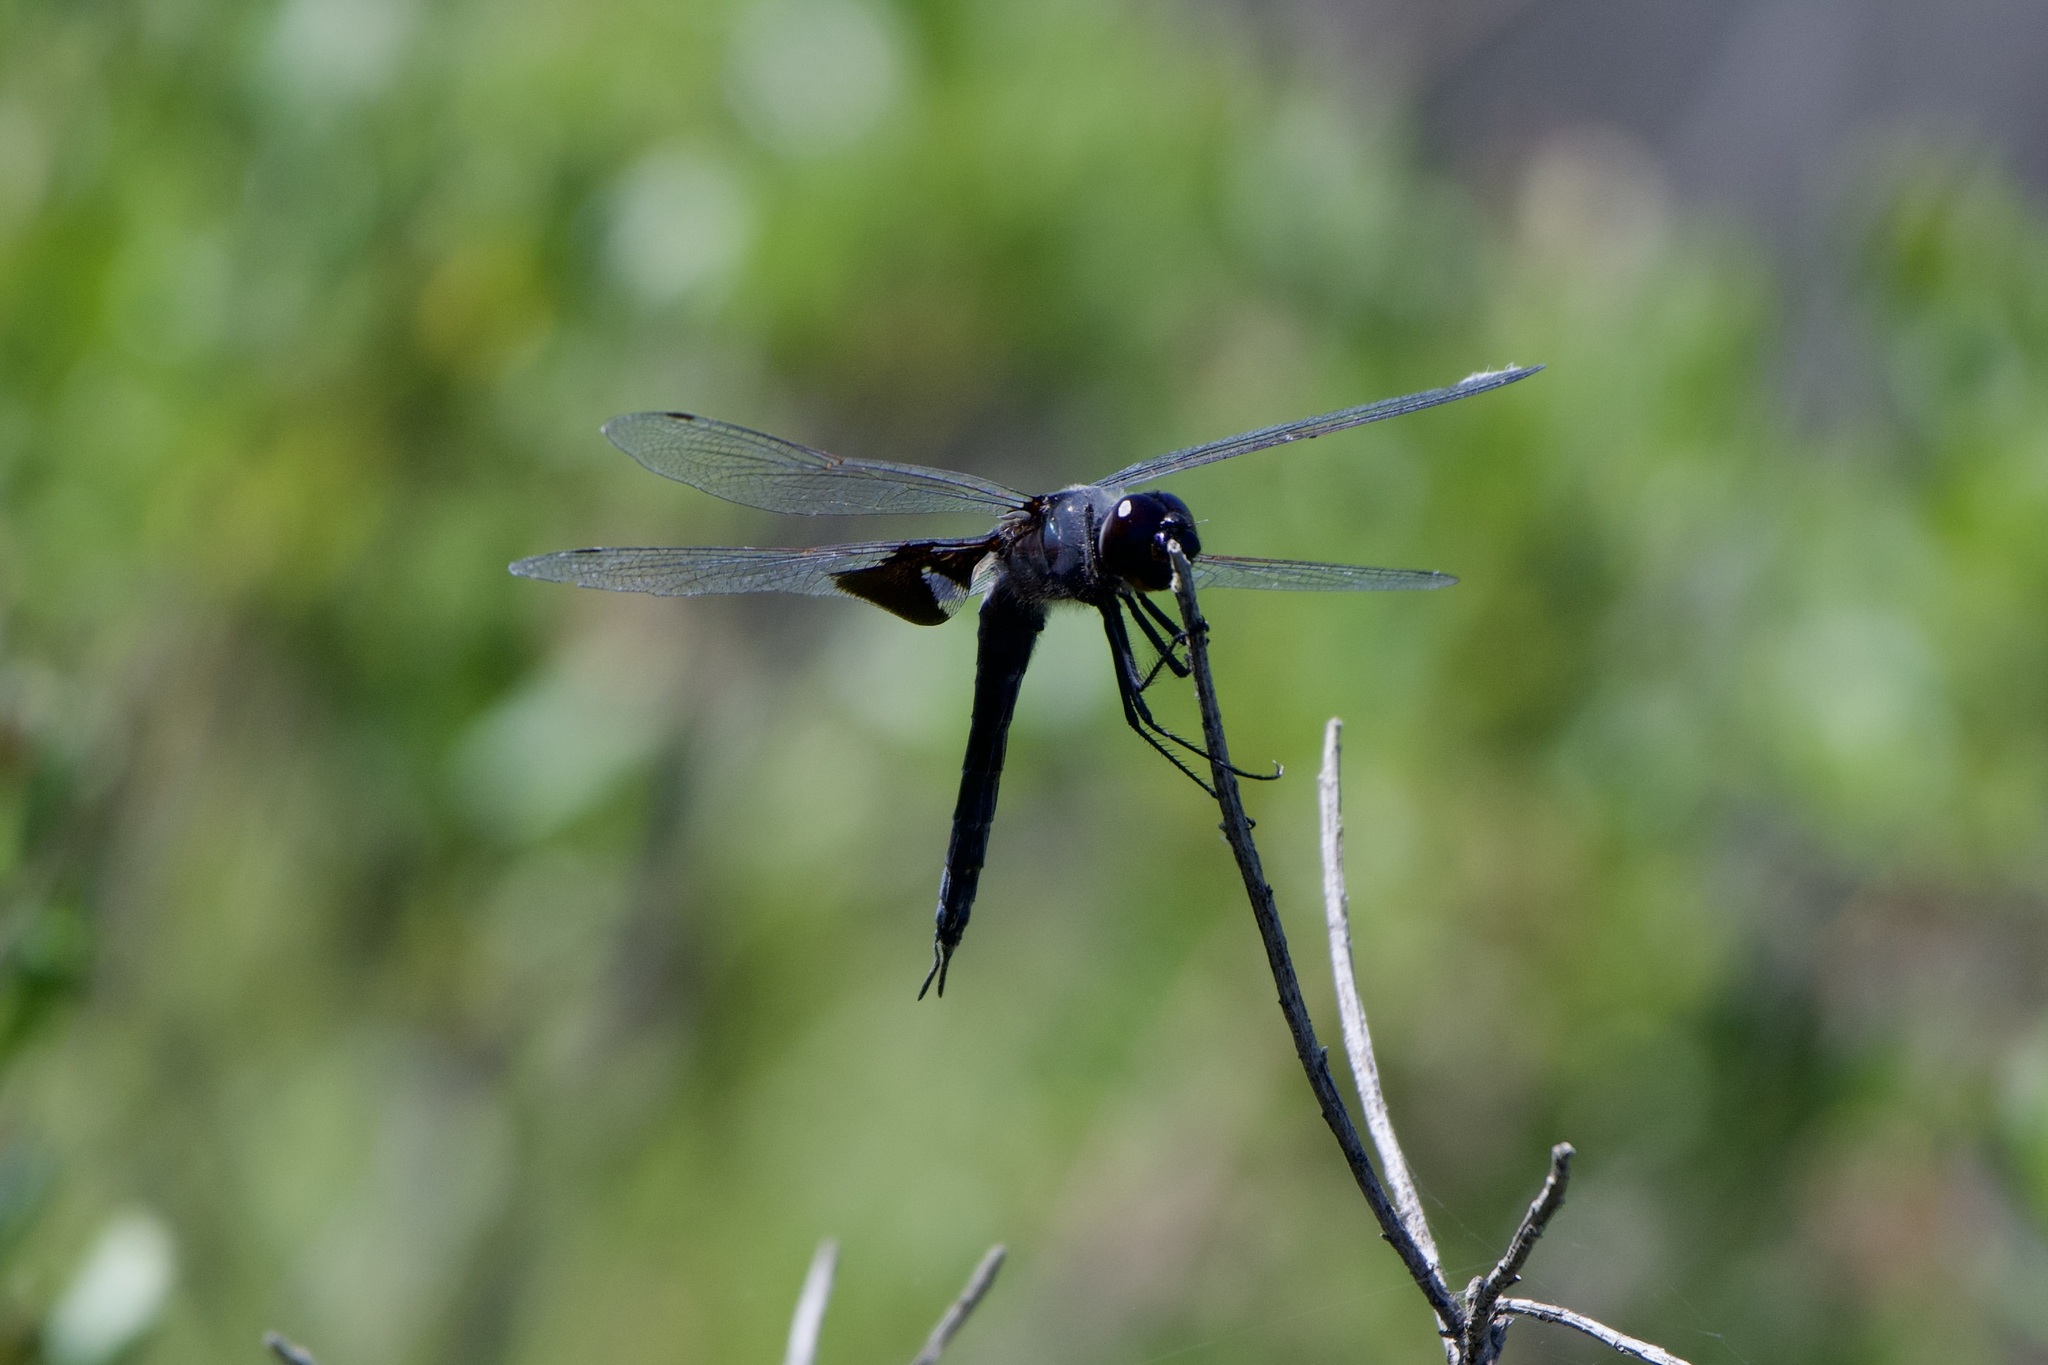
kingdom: Animalia
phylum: Arthropoda
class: Insecta
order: Odonata
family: Libellulidae
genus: Tramea
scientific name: Tramea lacerata
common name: Black saddlebags
